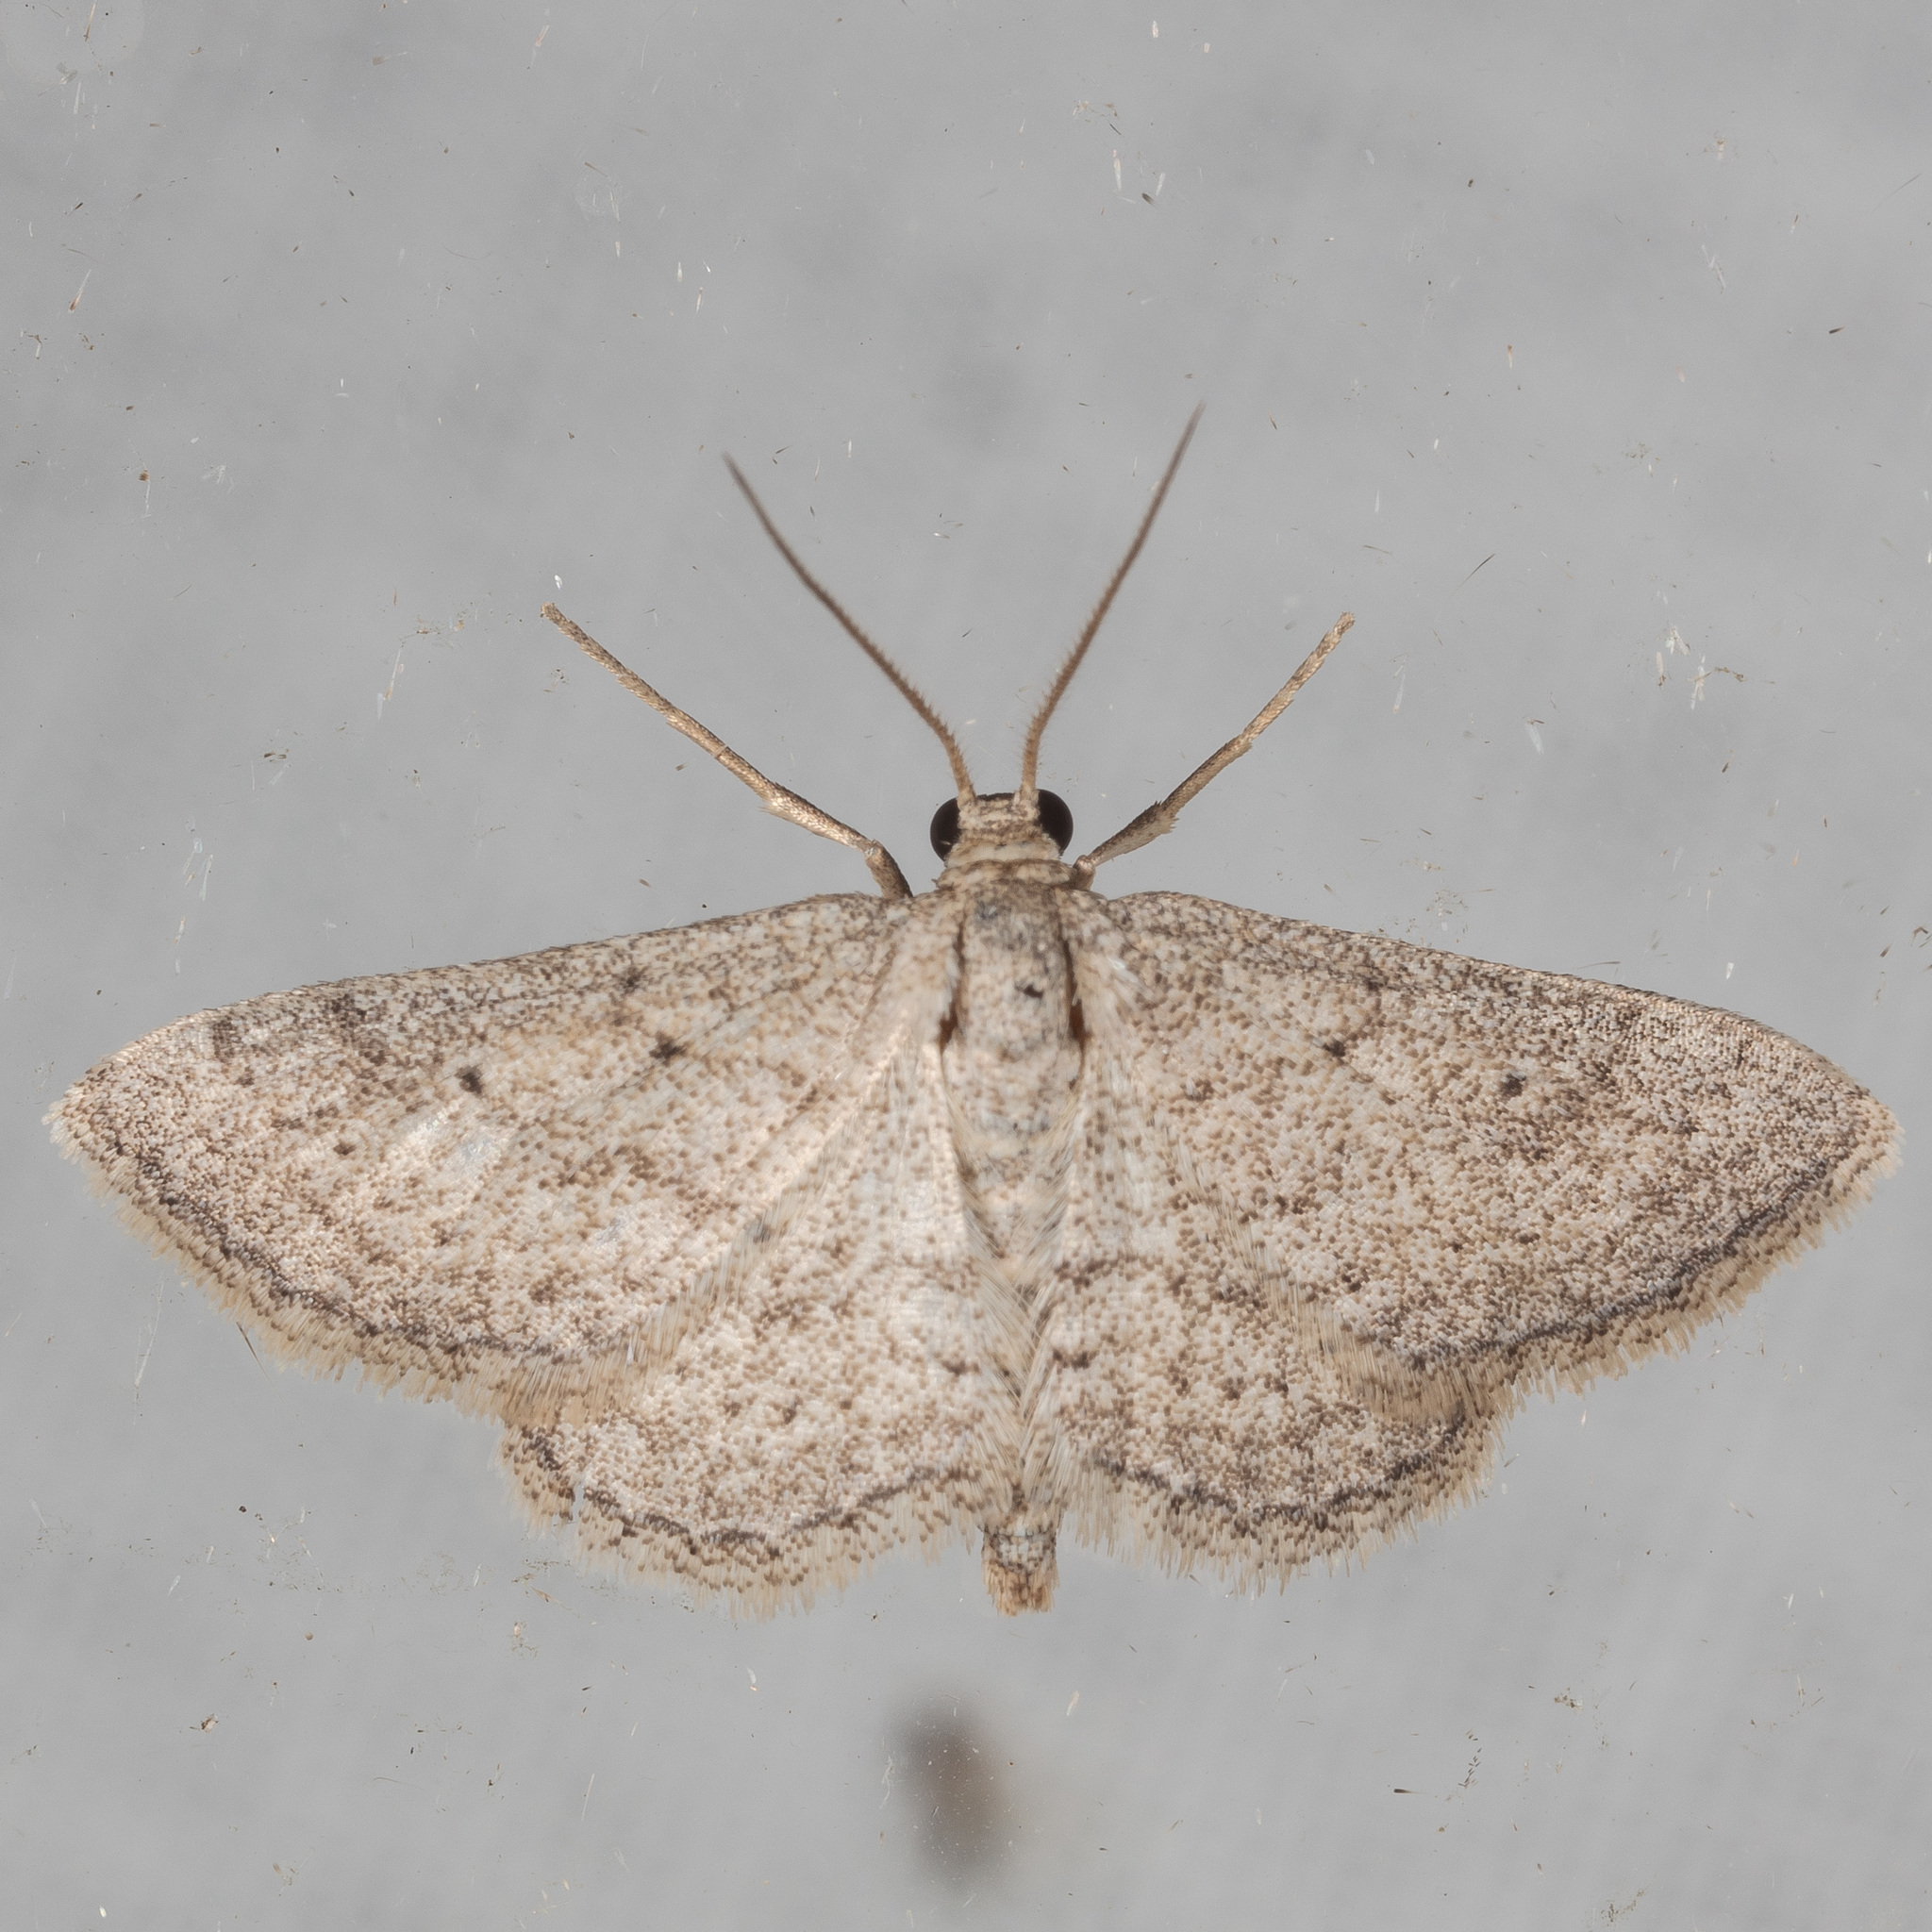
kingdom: Animalia
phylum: Arthropoda
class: Insecta
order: Lepidoptera
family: Geometridae
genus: Lobocleta
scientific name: Lobocleta ossularia
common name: Drab brown wave
